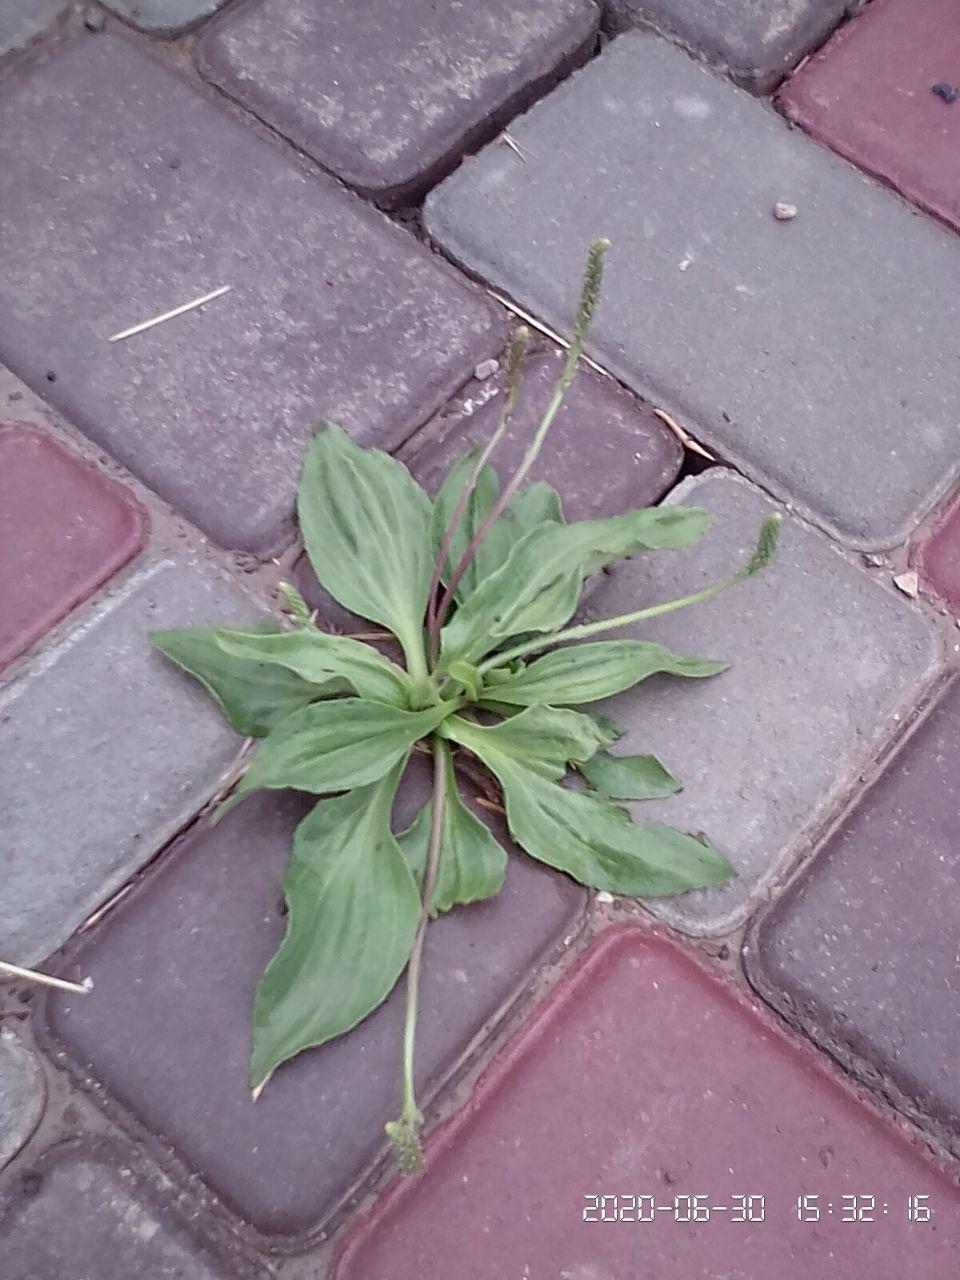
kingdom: Plantae
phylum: Tracheophyta
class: Magnoliopsida
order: Lamiales
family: Plantaginaceae
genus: Plantago
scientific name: Plantago major
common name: Common plantain
